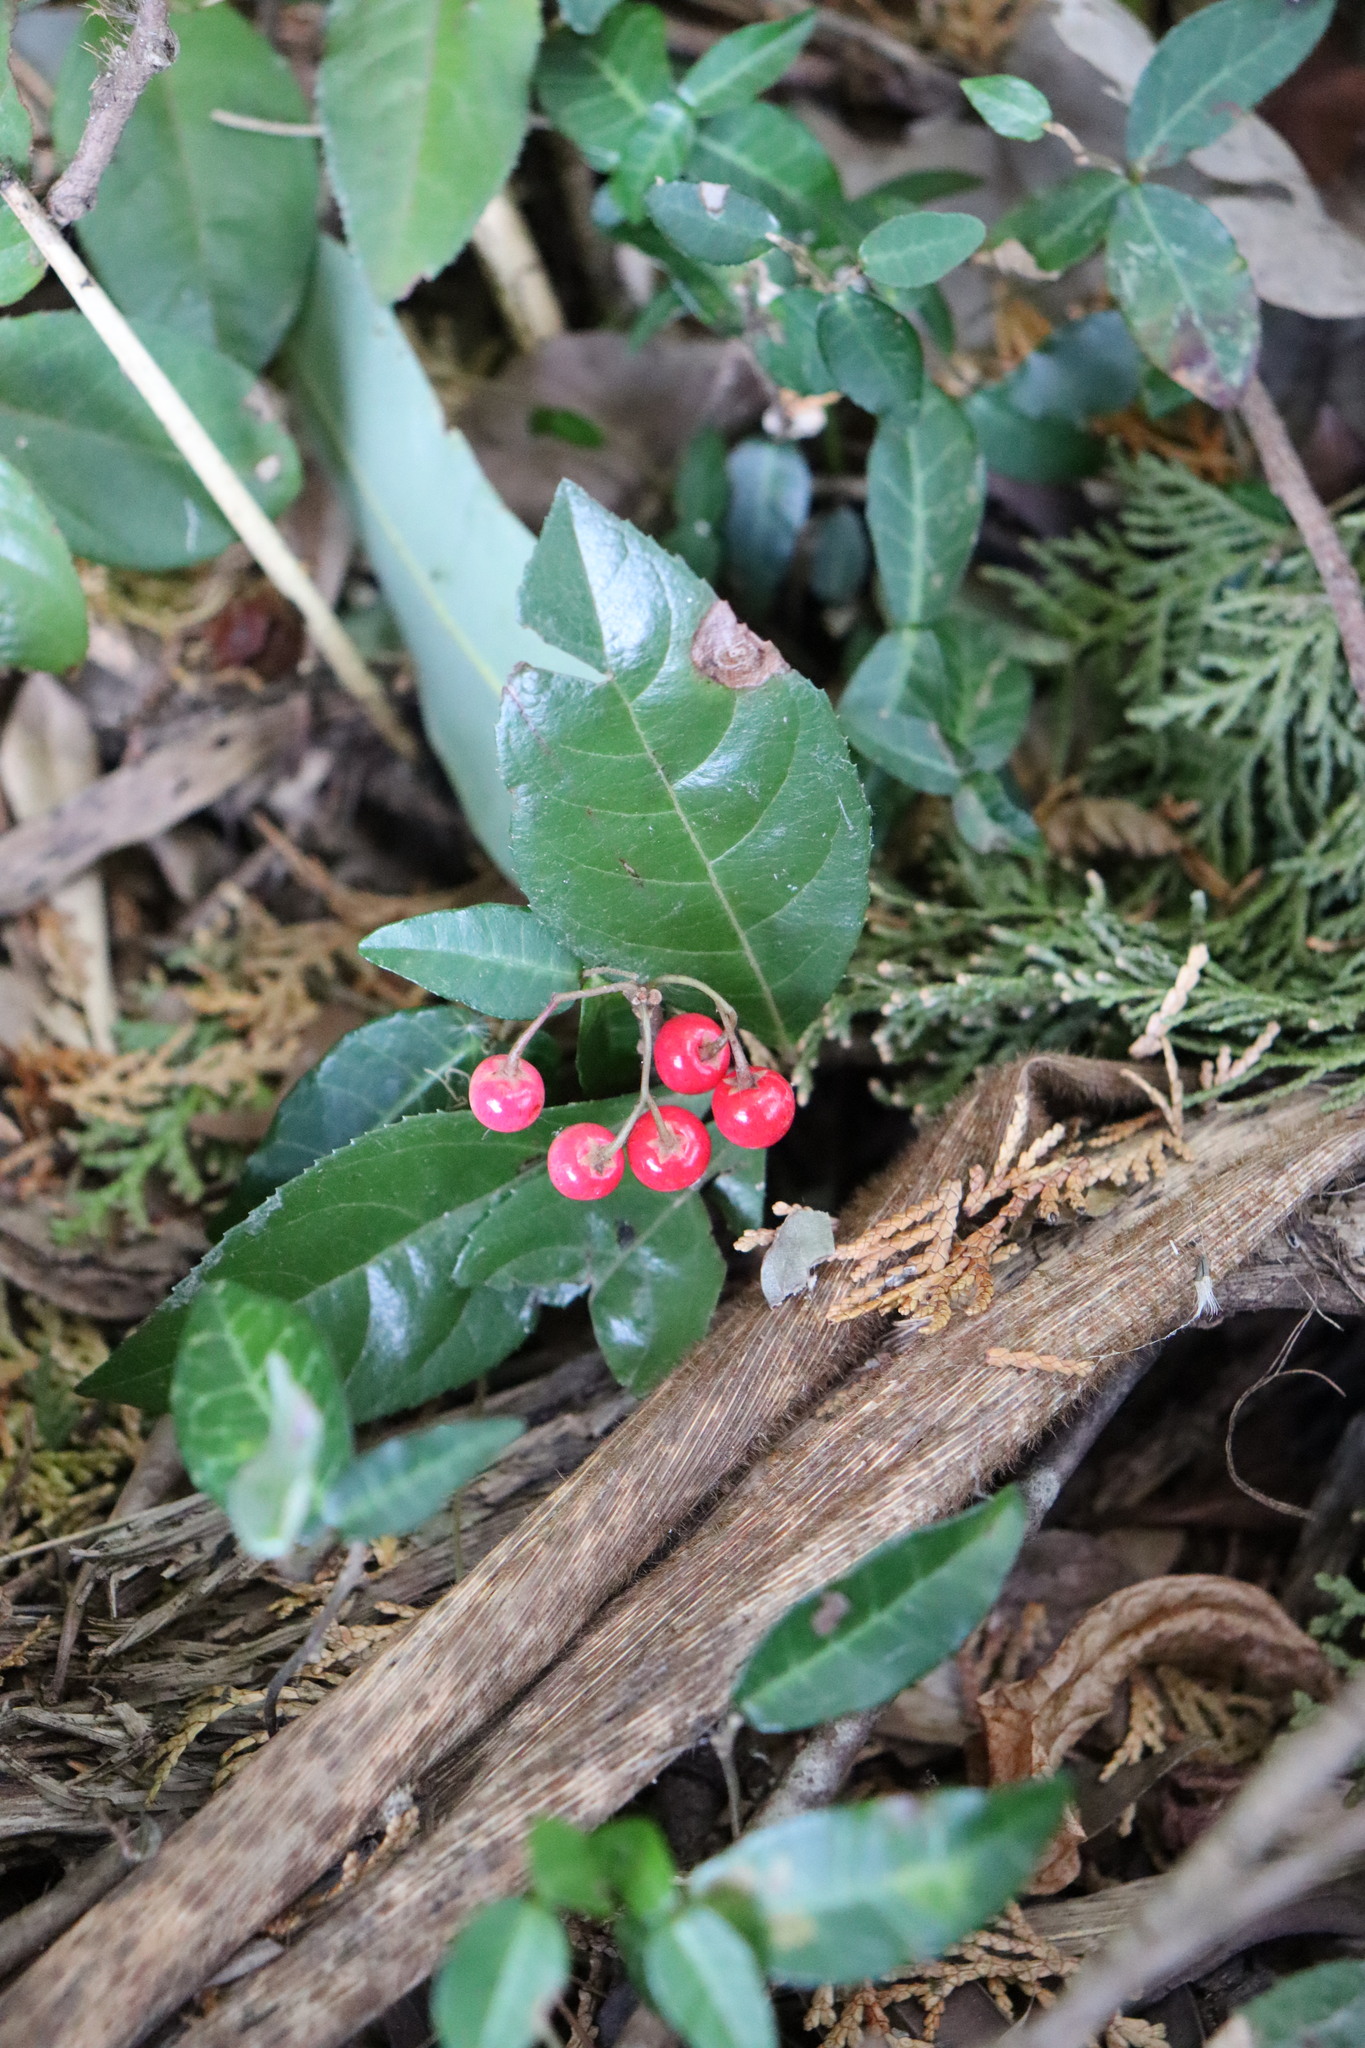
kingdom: Plantae
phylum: Tracheophyta
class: Magnoliopsida
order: Ericales
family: Primulaceae
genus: Ardisia
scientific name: Ardisia japonica
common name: Marlberry
